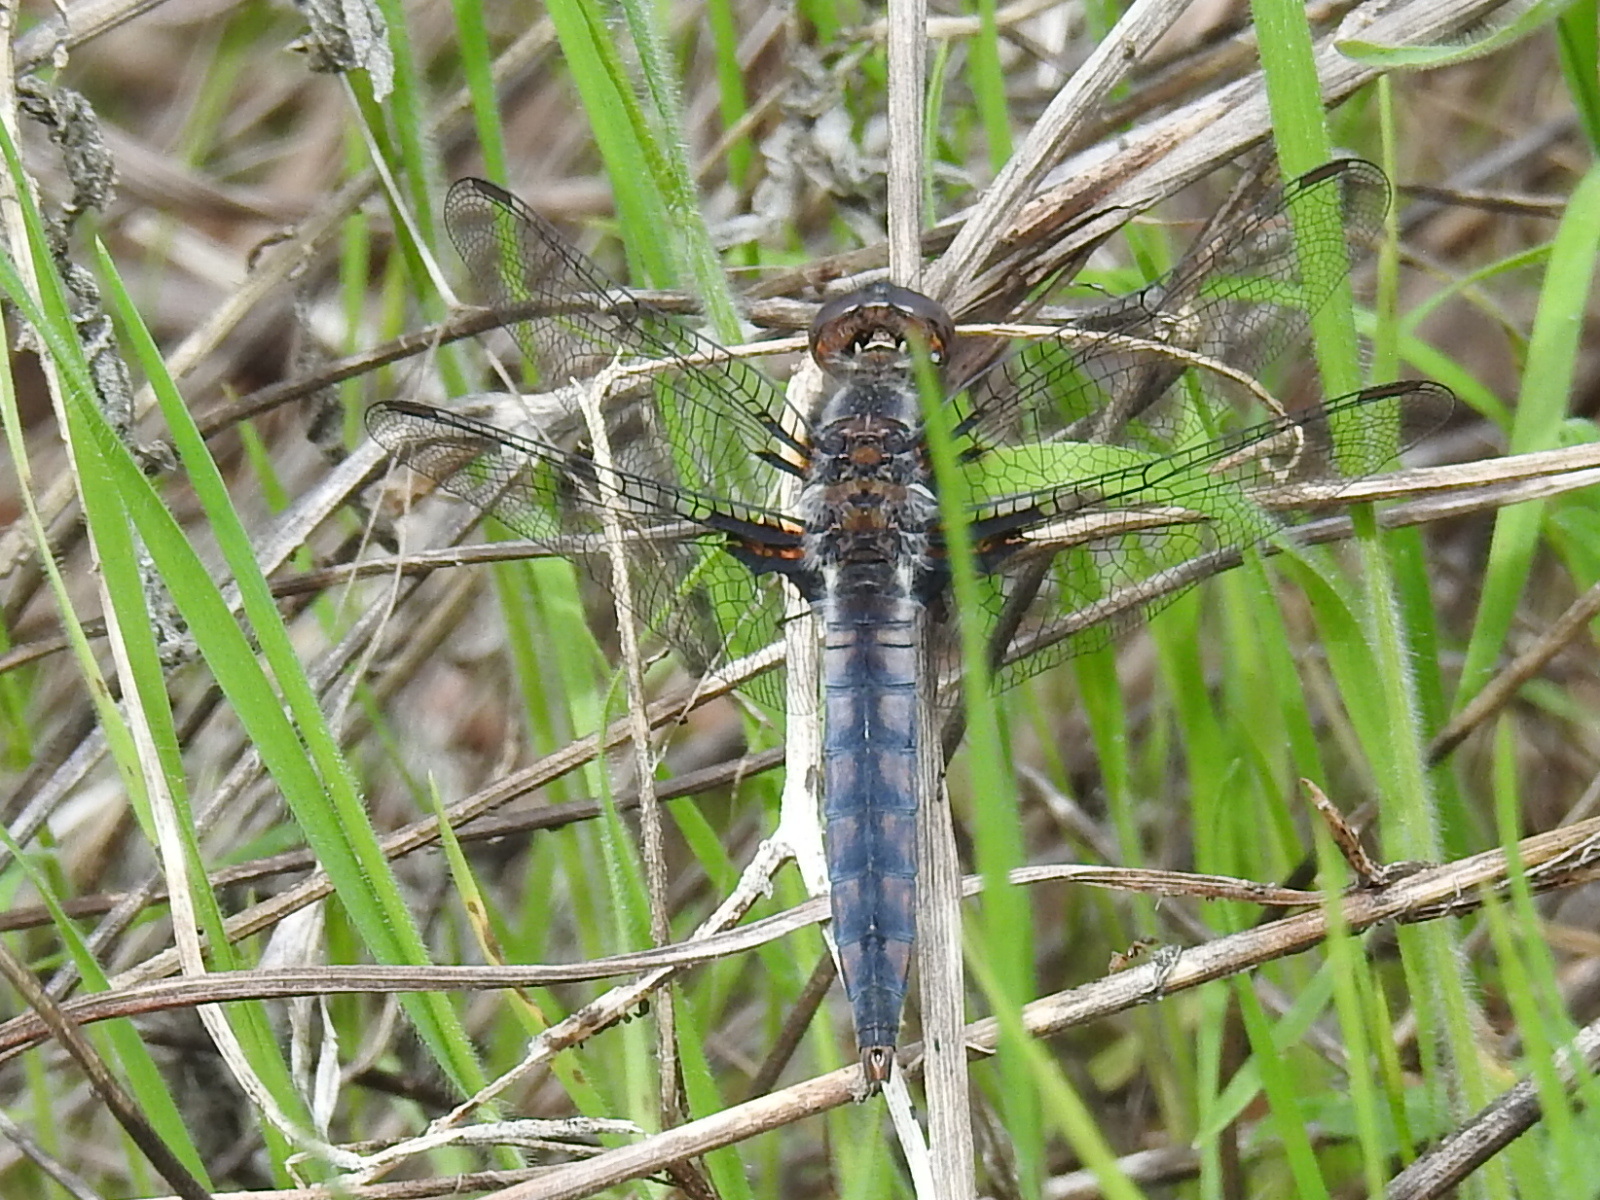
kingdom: Animalia
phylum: Arthropoda
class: Insecta
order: Odonata
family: Libellulidae
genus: Ladona
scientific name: Ladona deplanata
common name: Blue corporal
